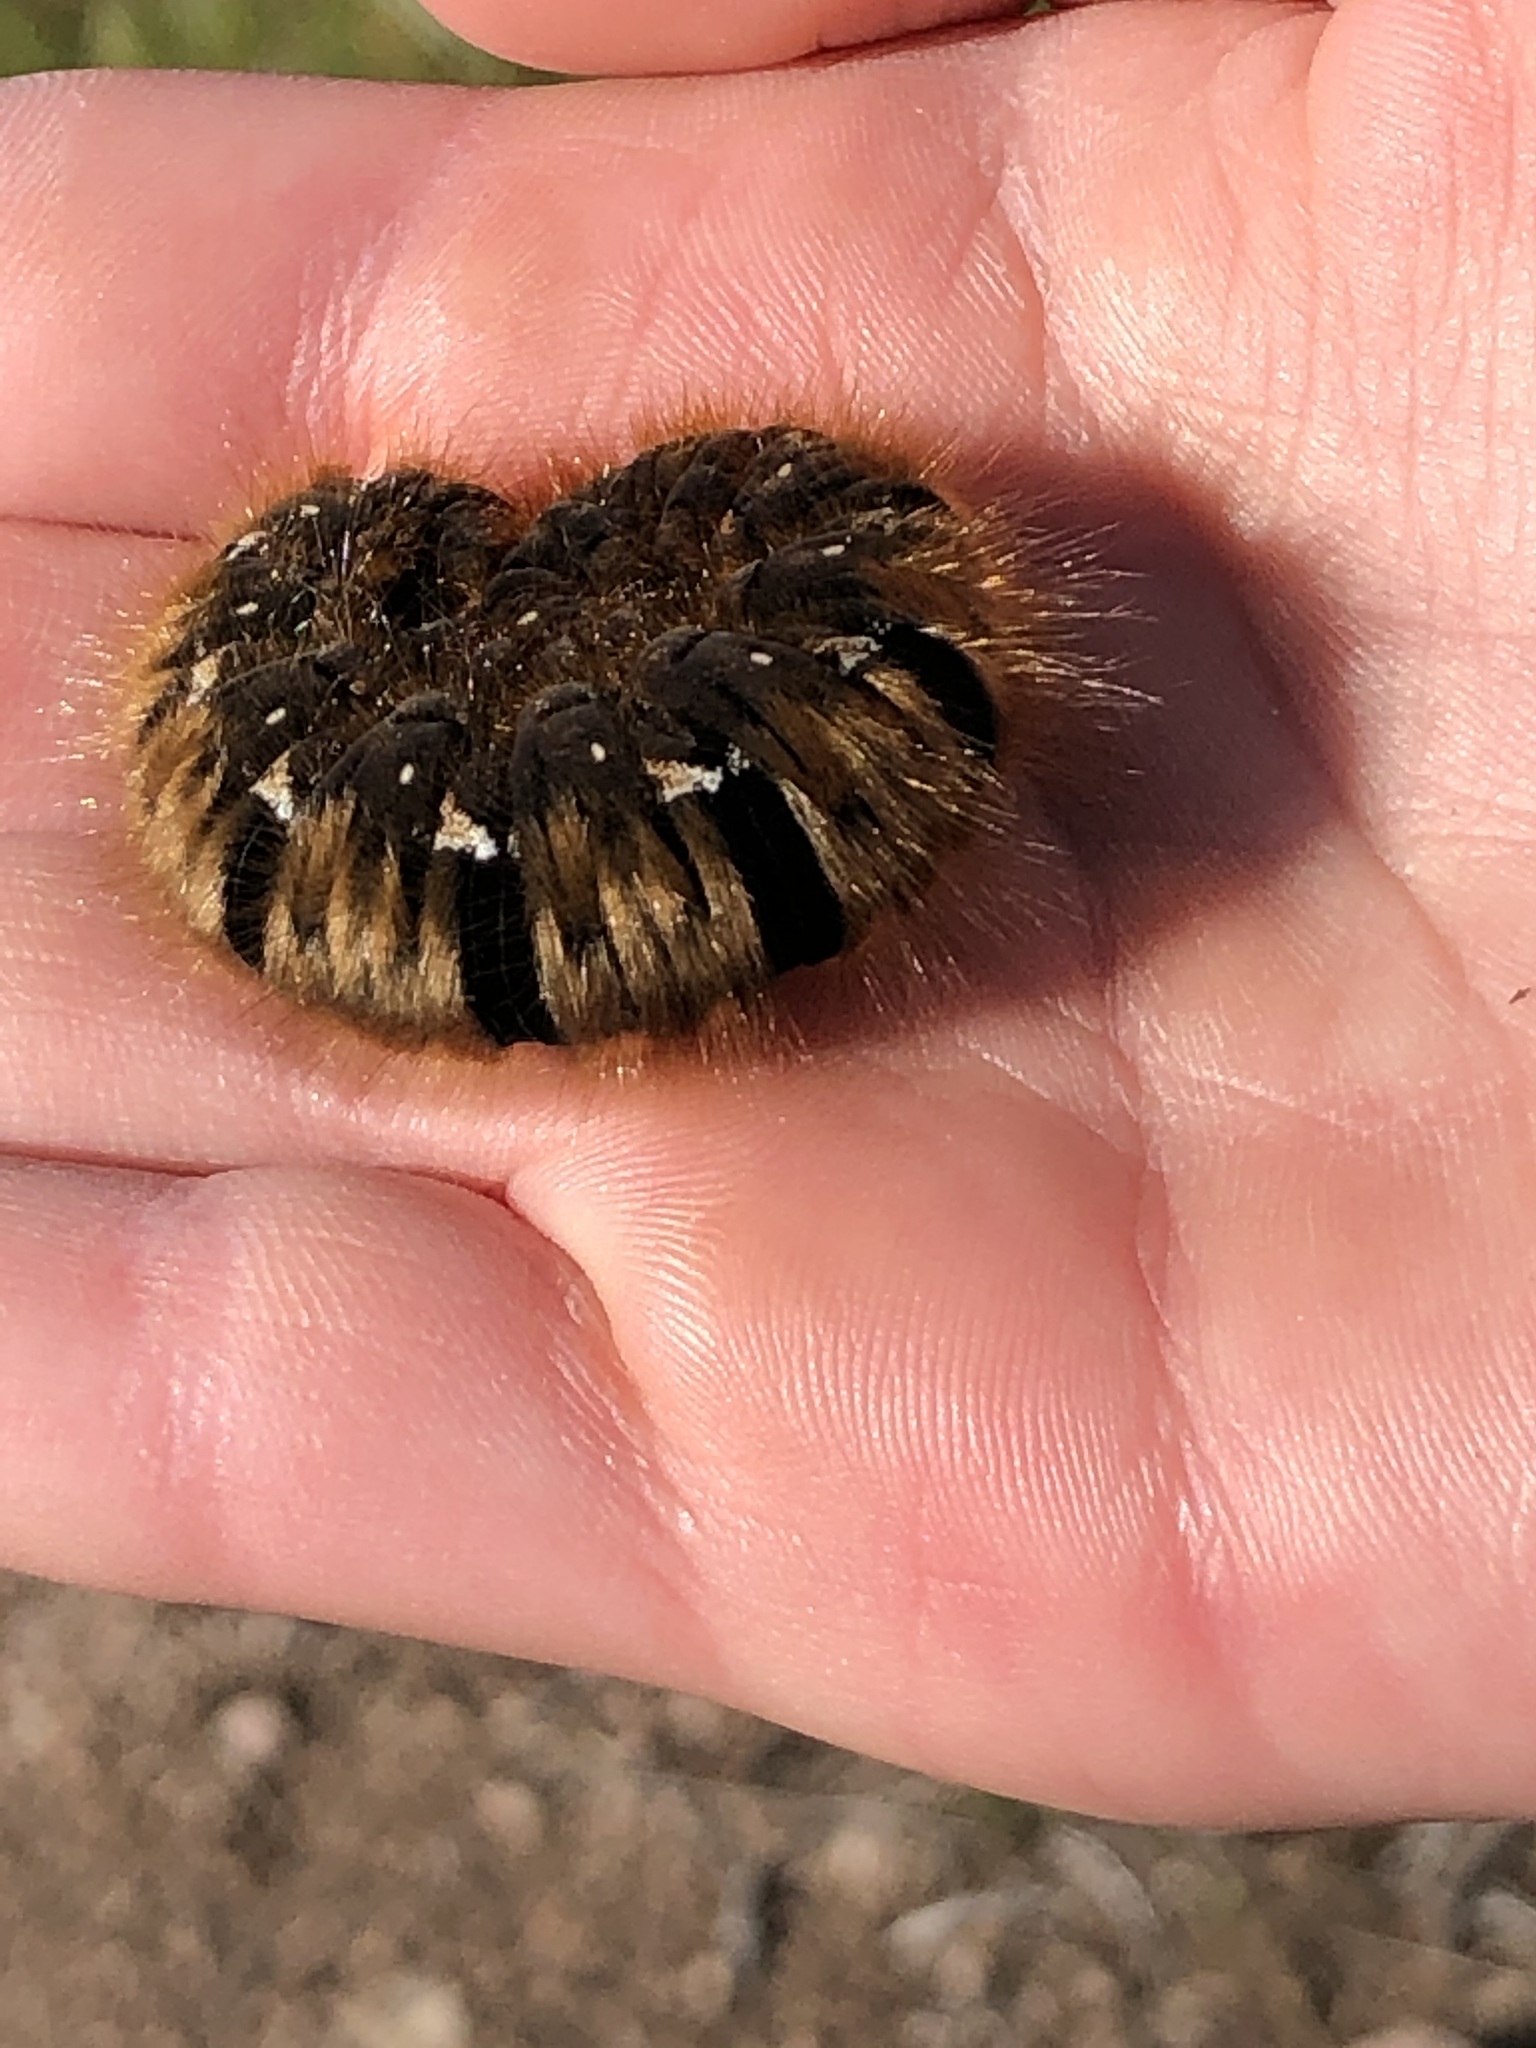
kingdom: Animalia
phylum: Arthropoda
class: Insecta
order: Lepidoptera
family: Lasiocampidae
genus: Lasiocampa
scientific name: Lasiocampa quercus
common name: Oak eggar
